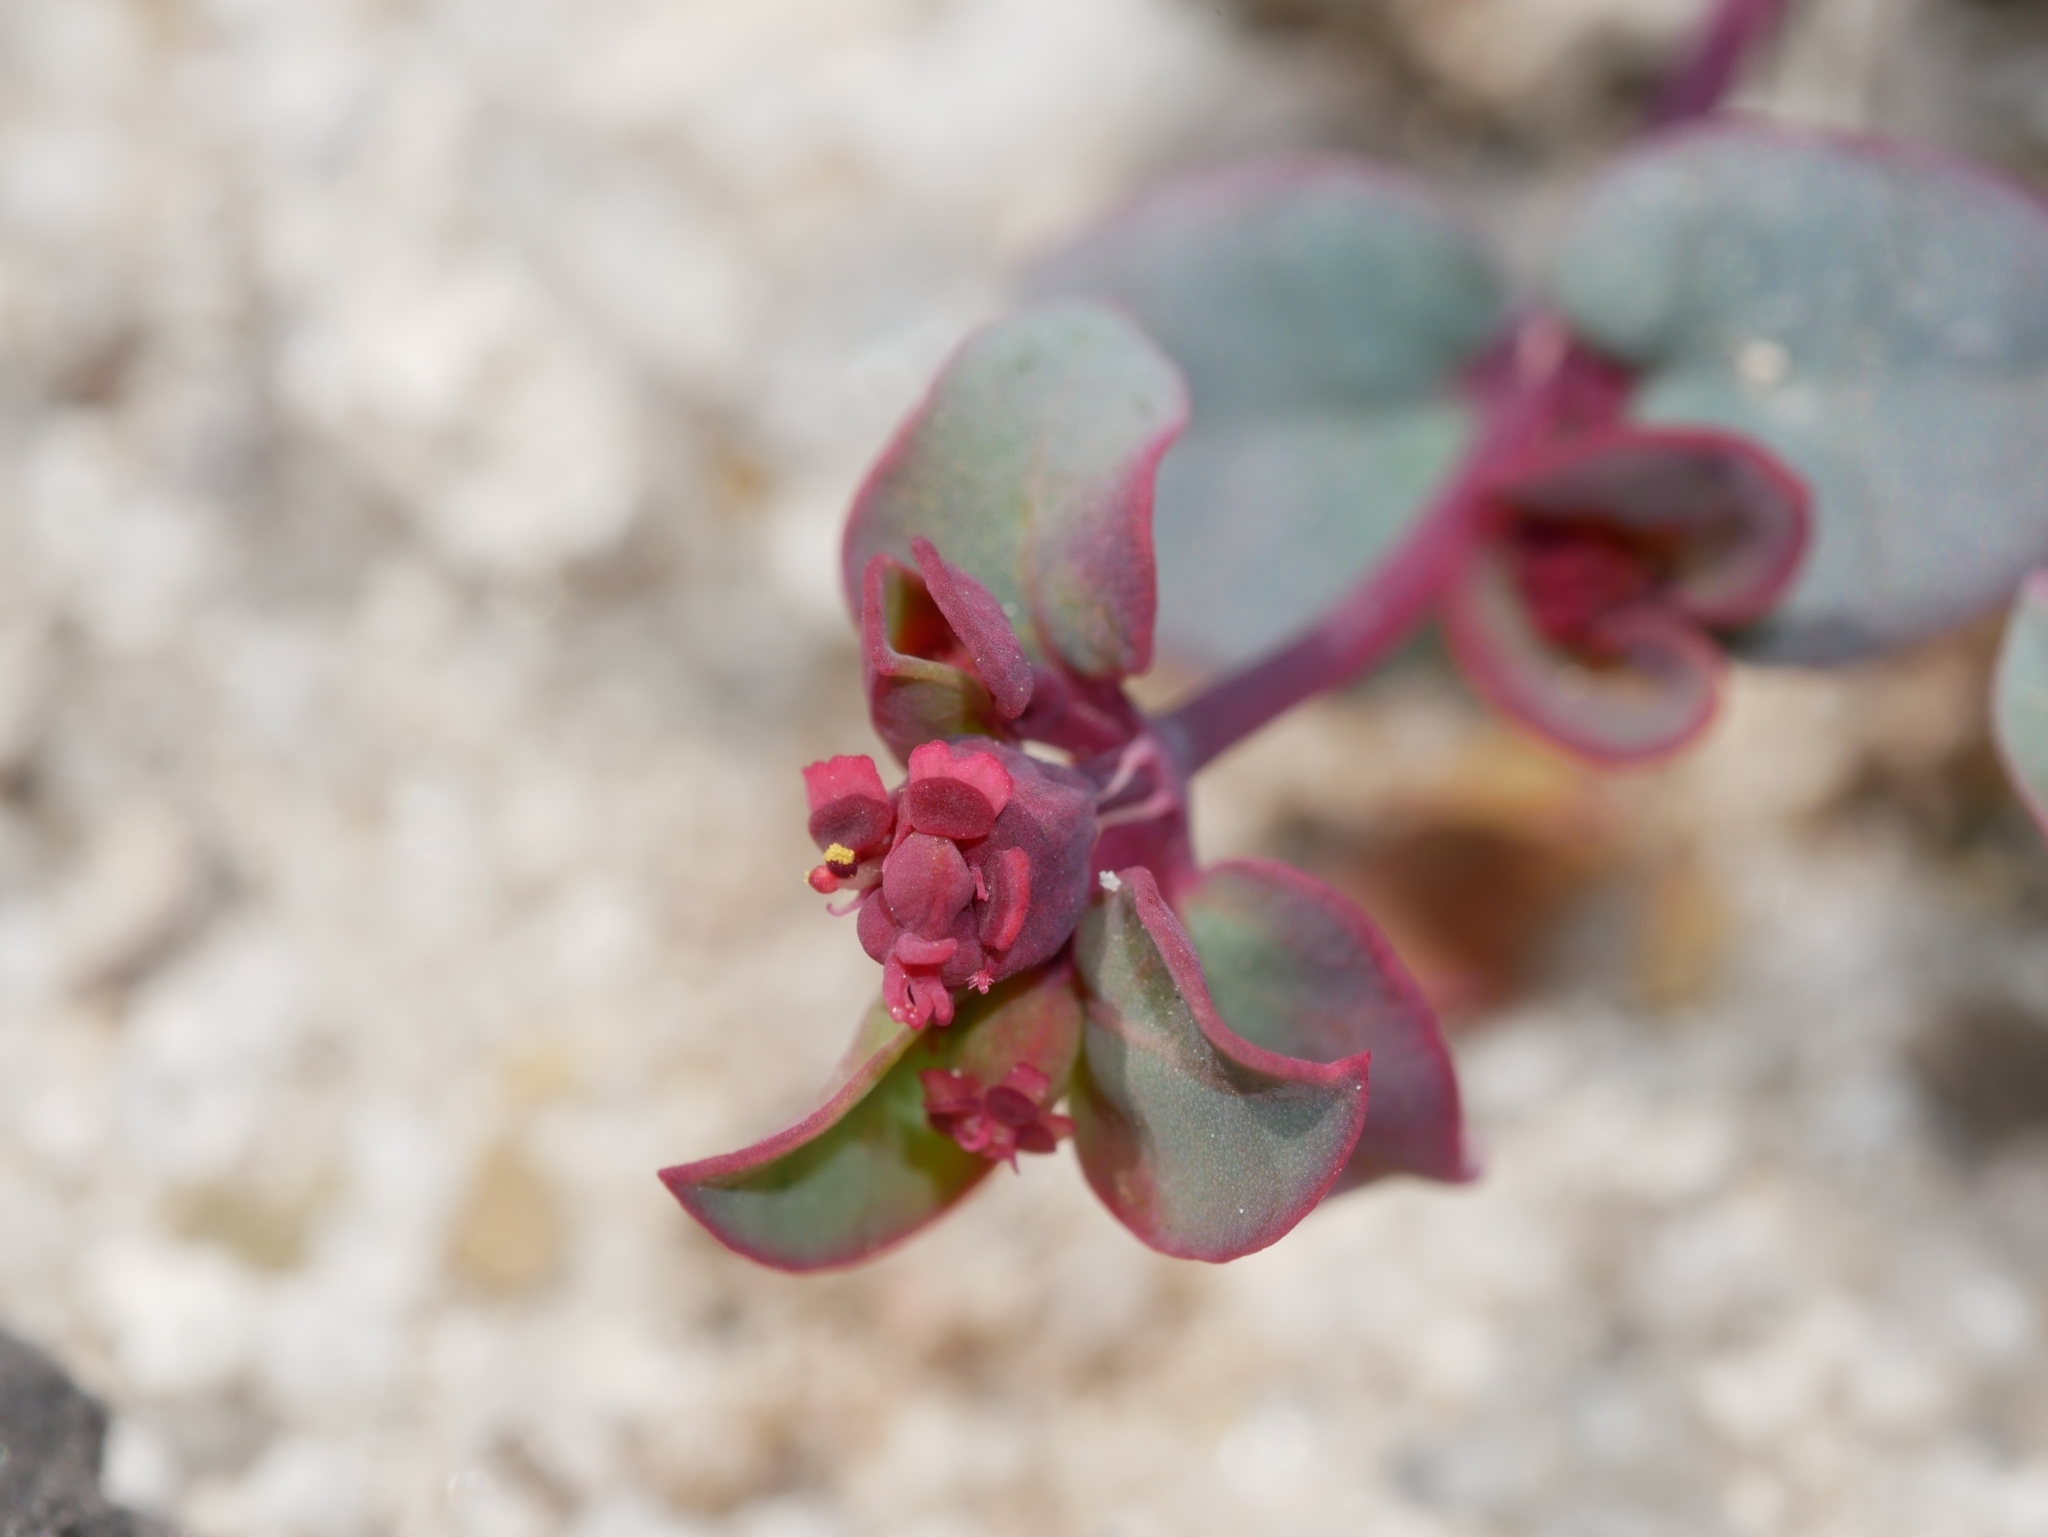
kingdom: Plantae
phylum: Tracheophyta
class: Magnoliopsida
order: Malpighiales
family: Euphorbiaceae
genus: Euphorbia
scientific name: Euphorbia fendleri
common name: Fendler's euphorbia
